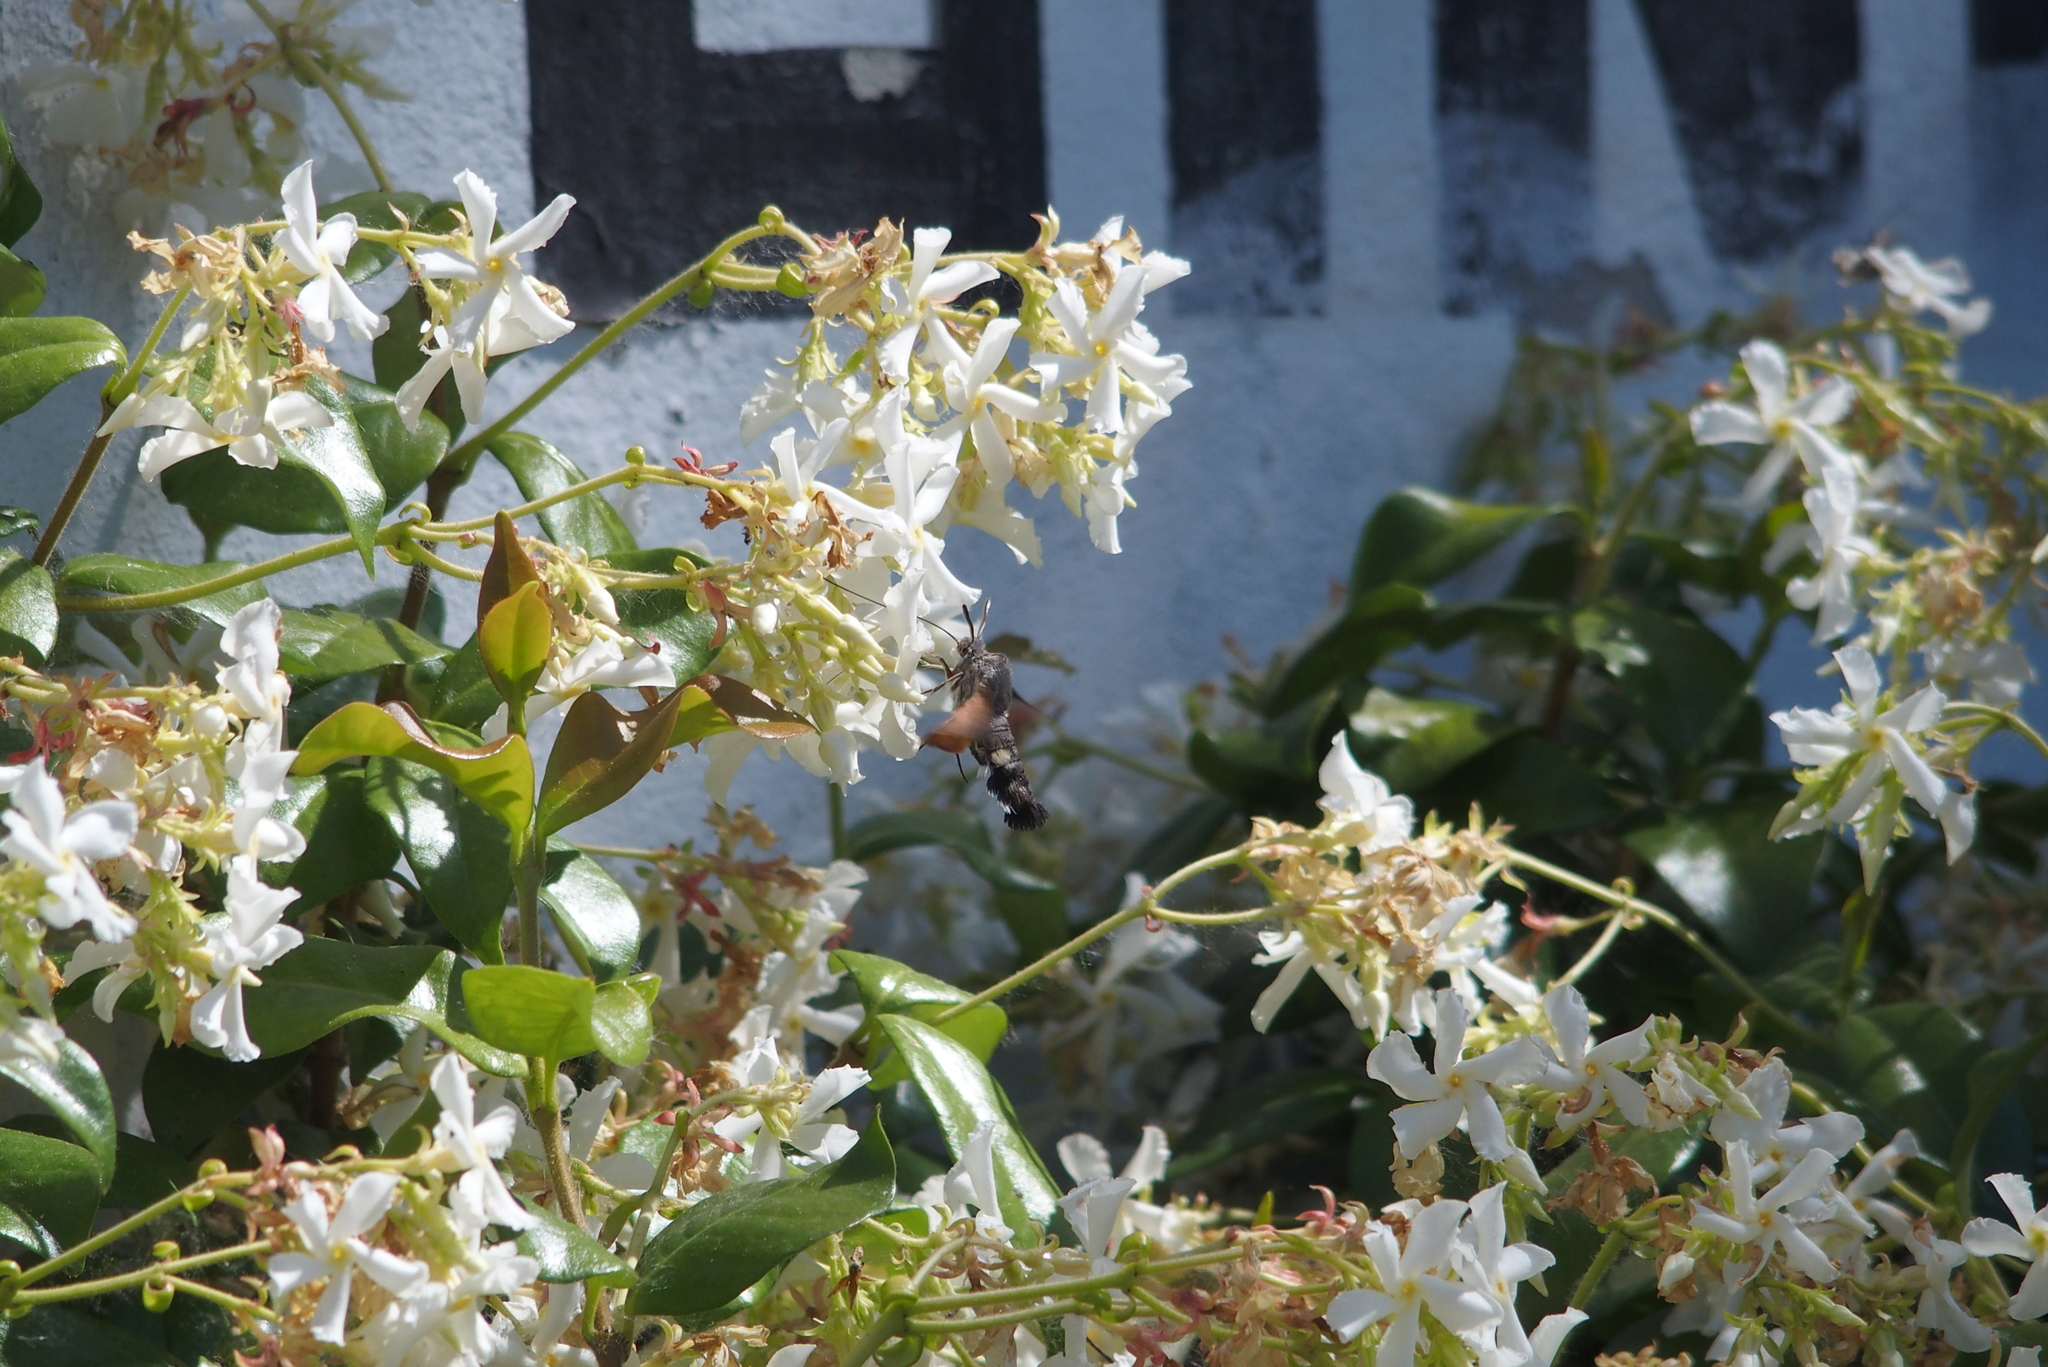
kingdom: Animalia
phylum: Arthropoda
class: Insecta
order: Lepidoptera
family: Sphingidae
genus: Macroglossum
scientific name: Macroglossum stellatarum
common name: Humming-bird hawk-moth
